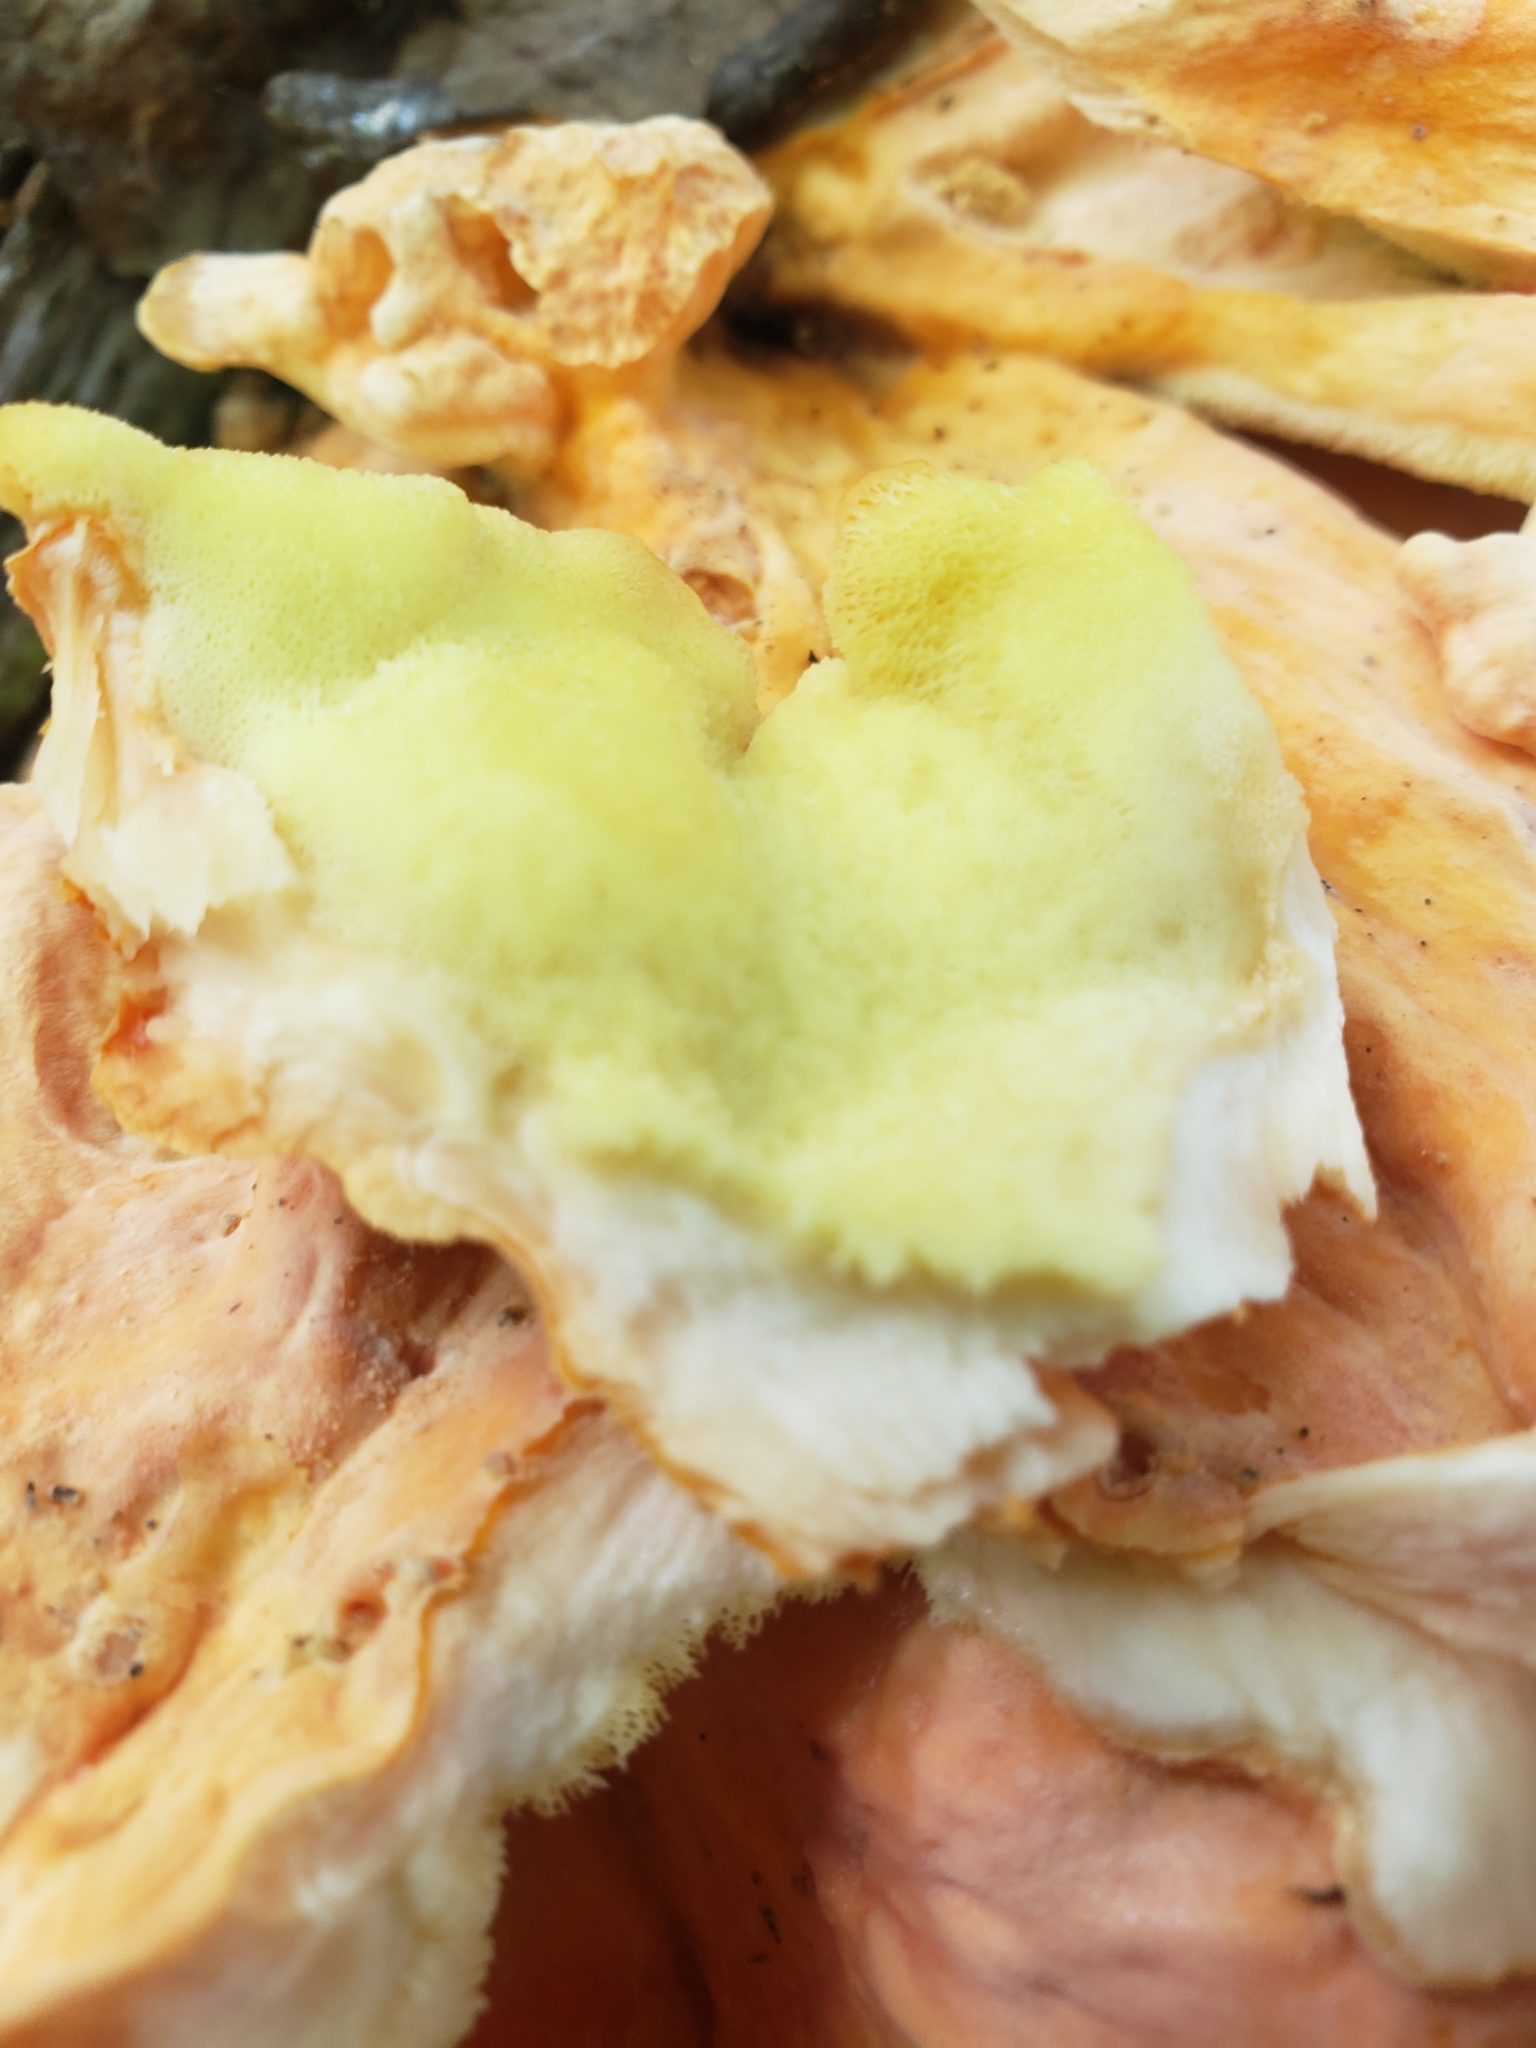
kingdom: Fungi
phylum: Basidiomycota
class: Agaricomycetes
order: Polyporales
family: Laetiporaceae
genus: Laetiporus
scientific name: Laetiporus sulphureus
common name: Chicken of the woods
